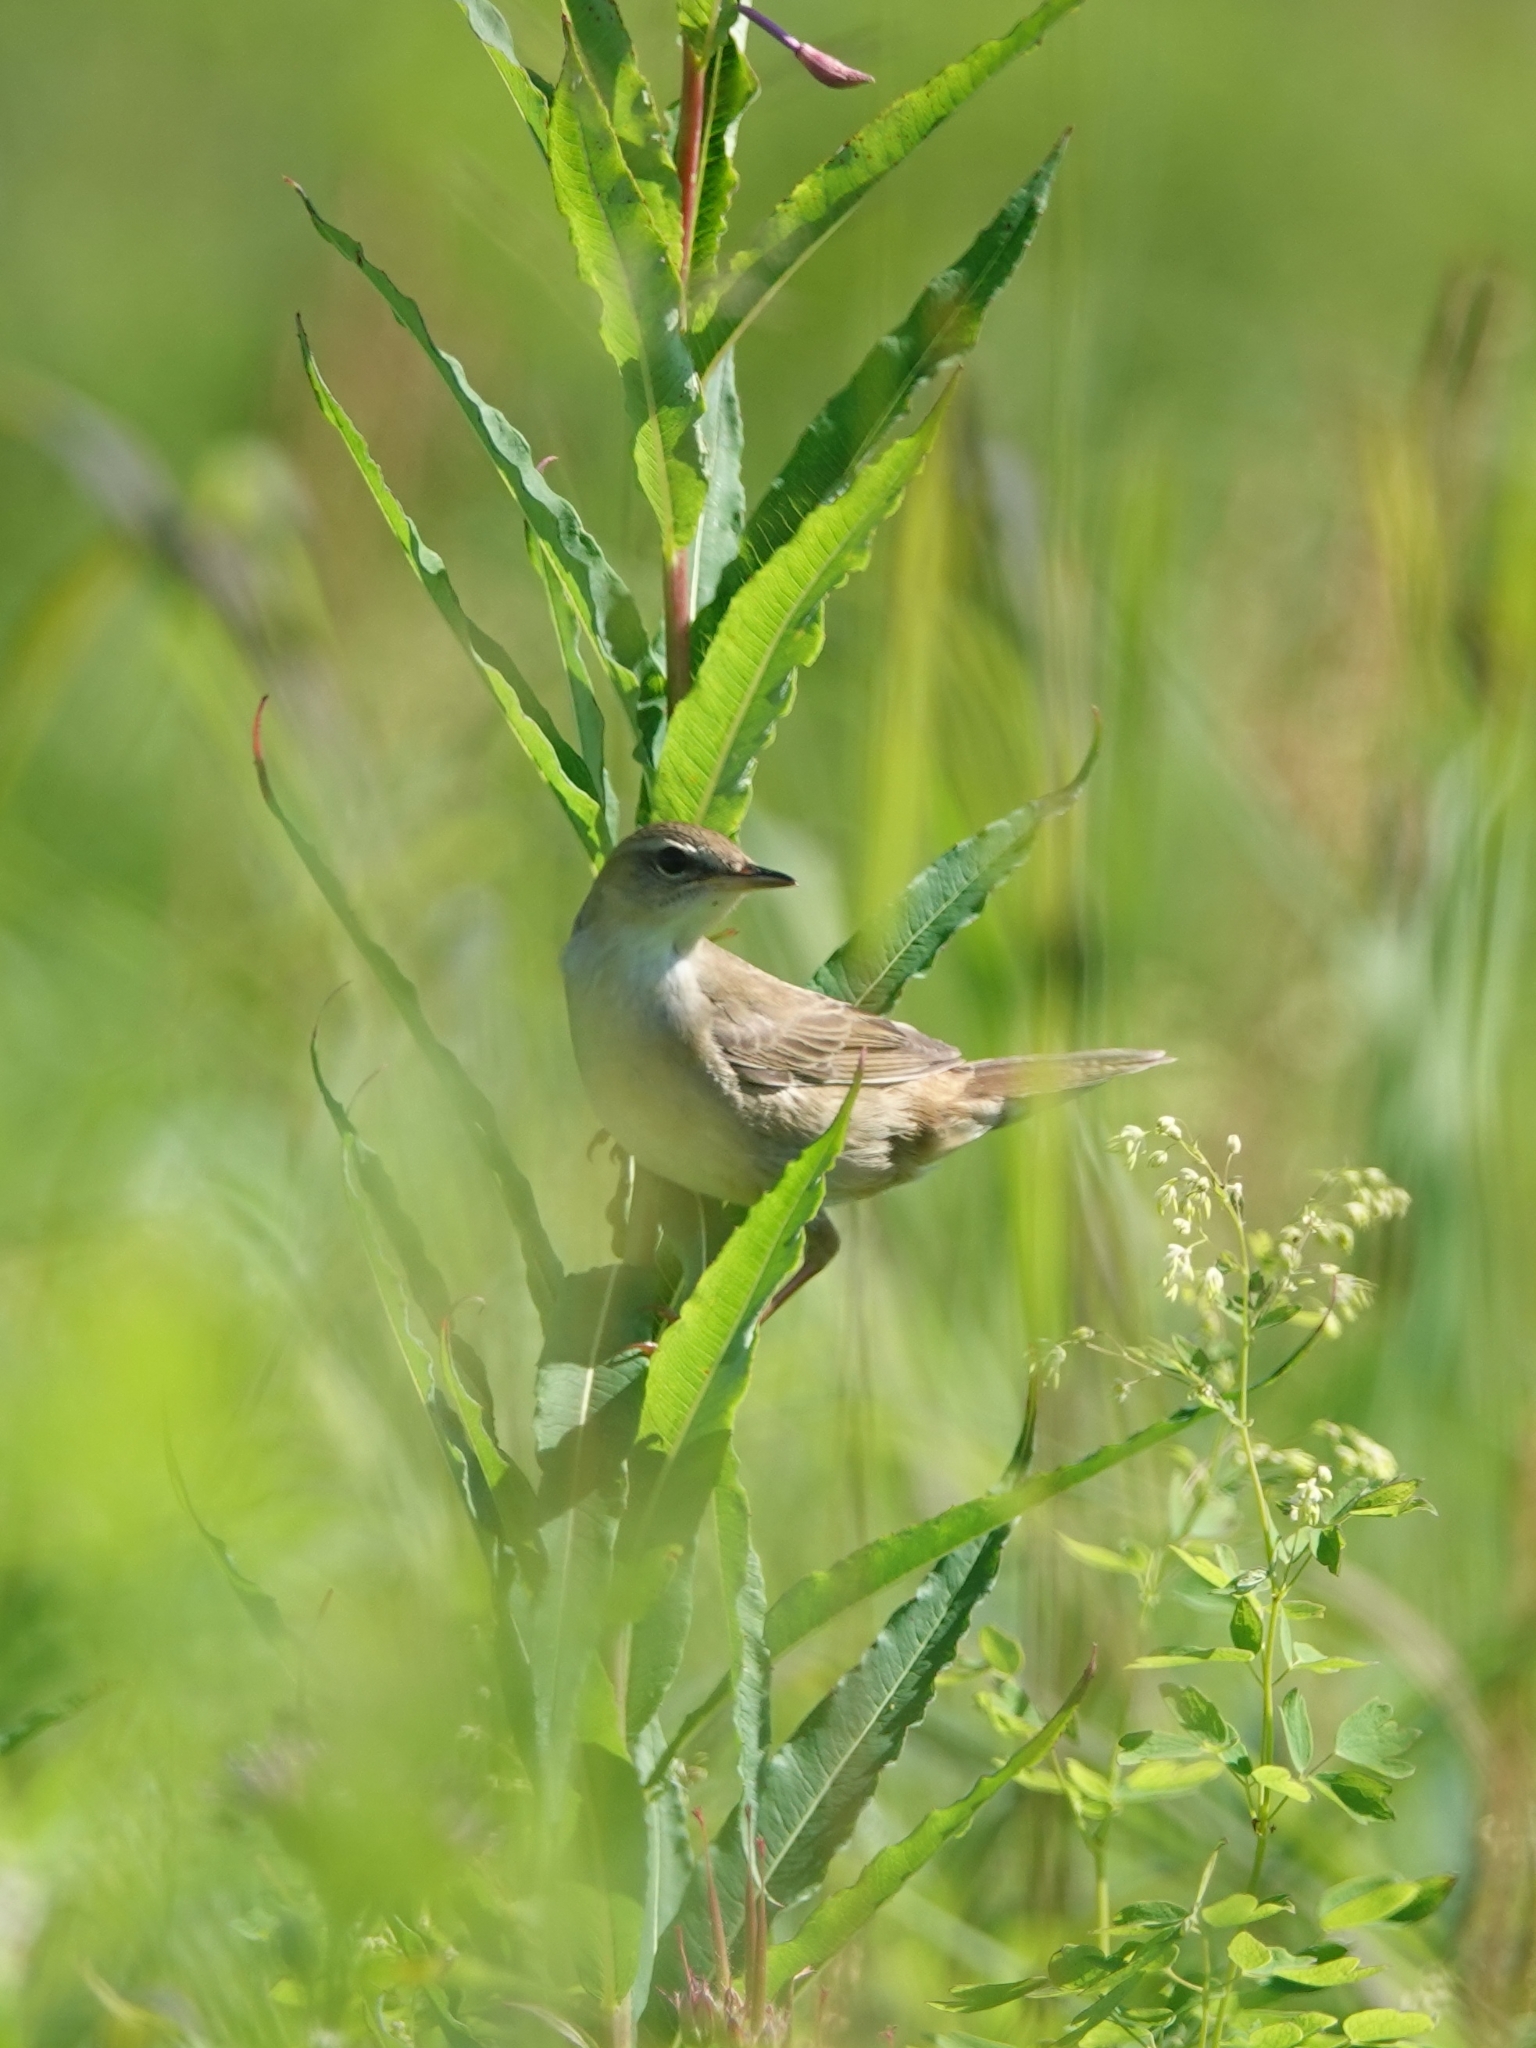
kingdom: Animalia
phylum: Chordata
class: Aves
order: Passeriformes
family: Locustellidae
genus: Locustella
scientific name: Locustella ochotensis
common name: Middendorff's grasshopper-warbler
